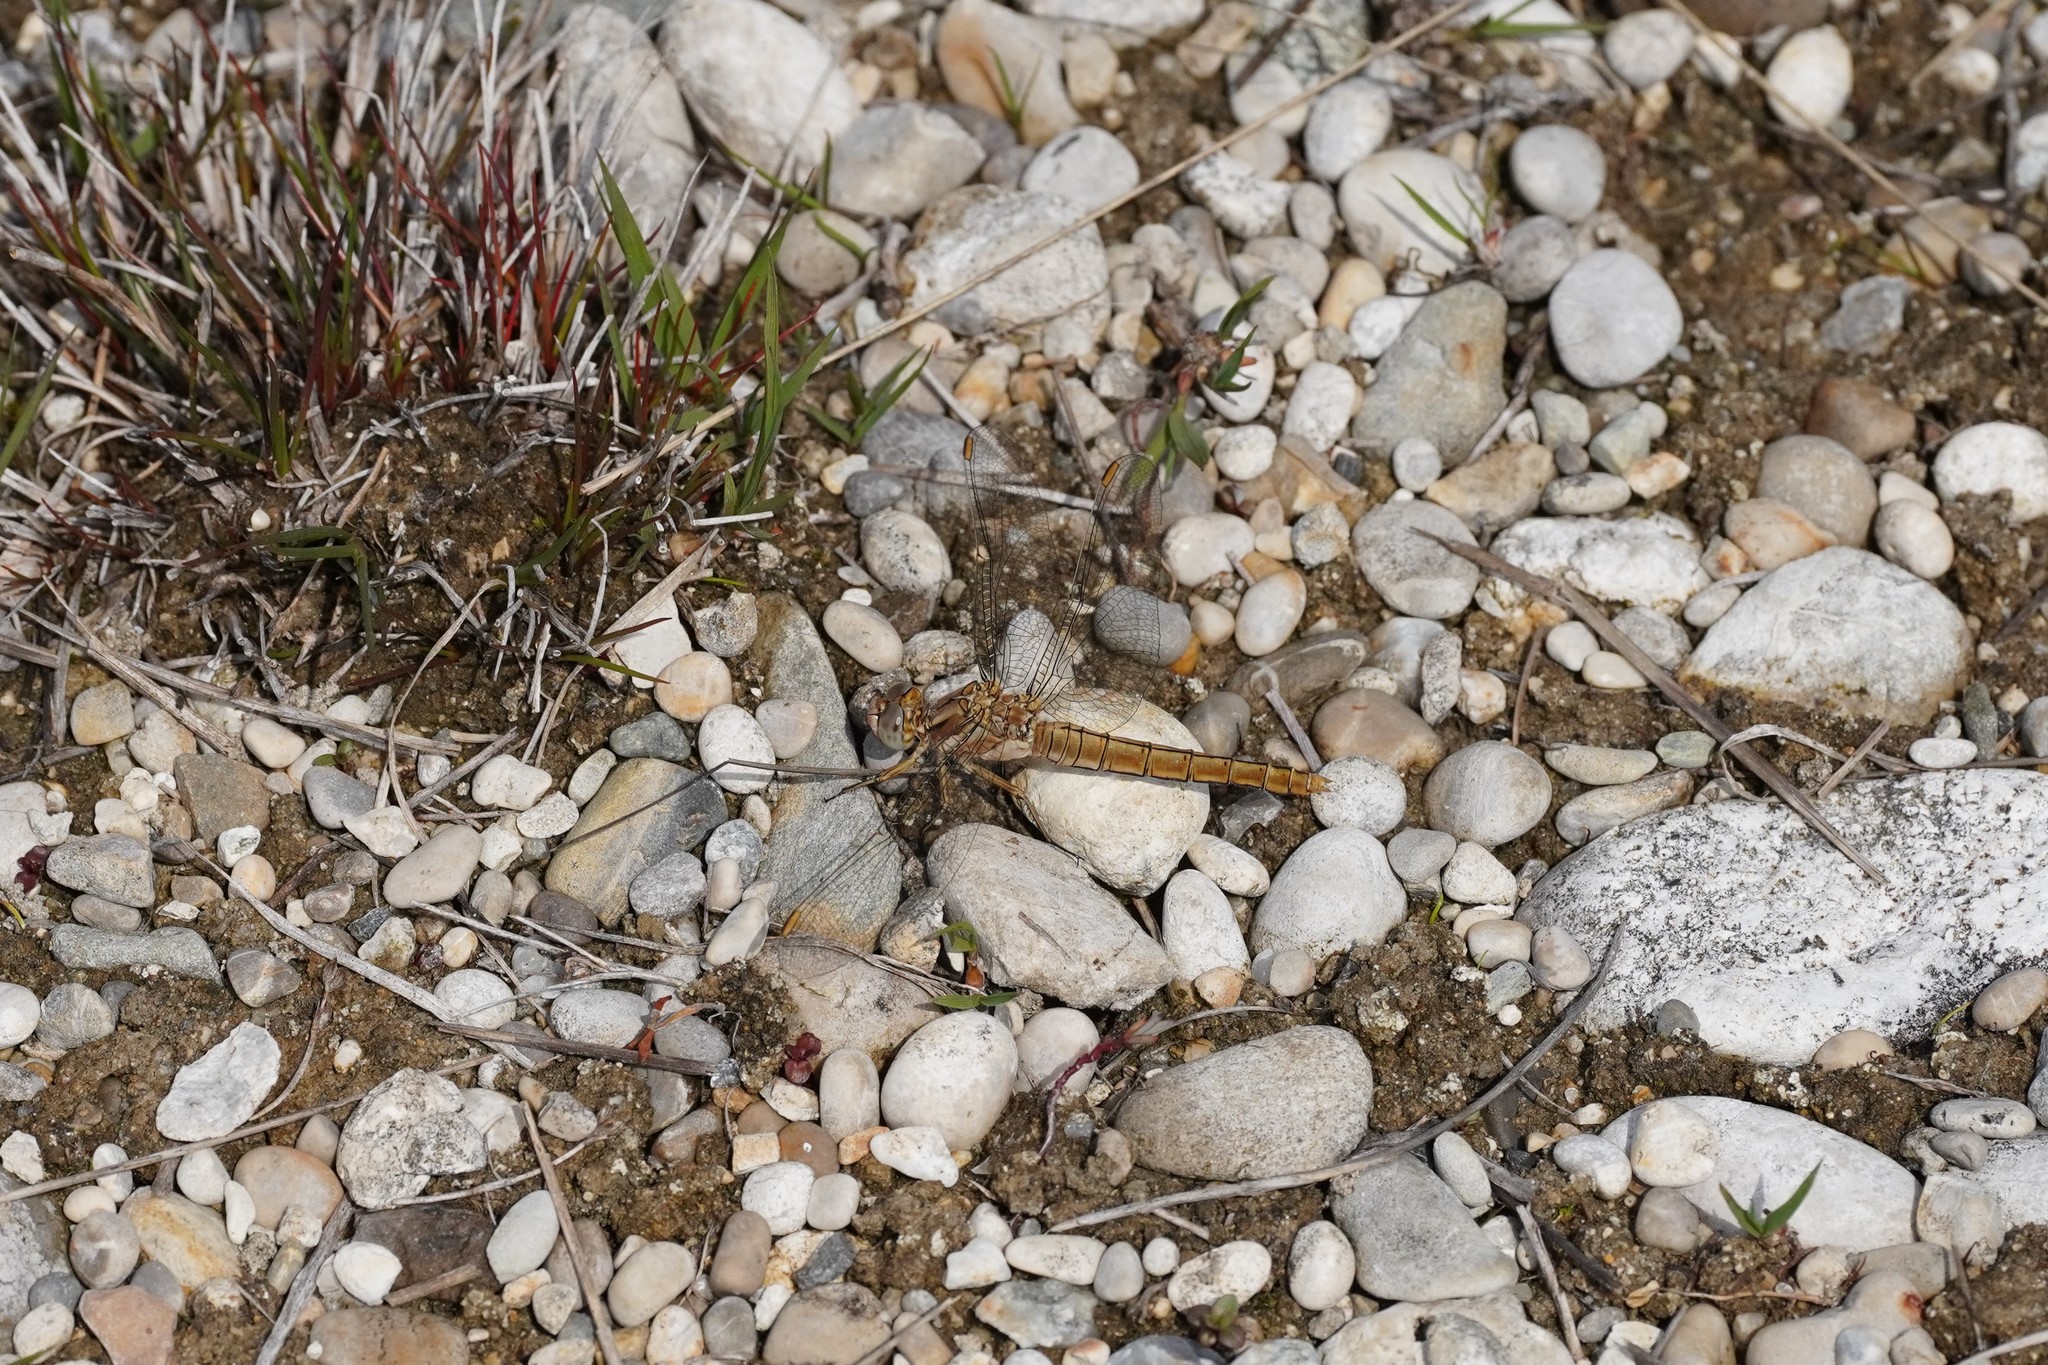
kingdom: Animalia
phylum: Arthropoda
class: Insecta
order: Odonata
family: Libellulidae
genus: Orthetrum
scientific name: Orthetrum brunneum
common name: Southern skimmer
